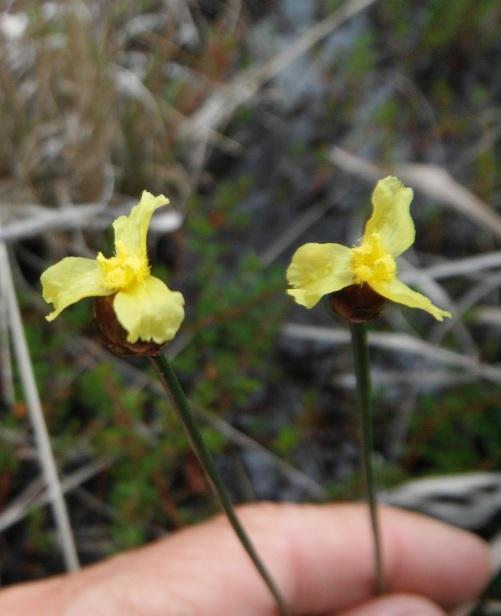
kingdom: Plantae
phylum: Tracheophyta
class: Liliopsida
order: Poales
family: Xyridaceae
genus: Xyris
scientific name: Xyris capensis
